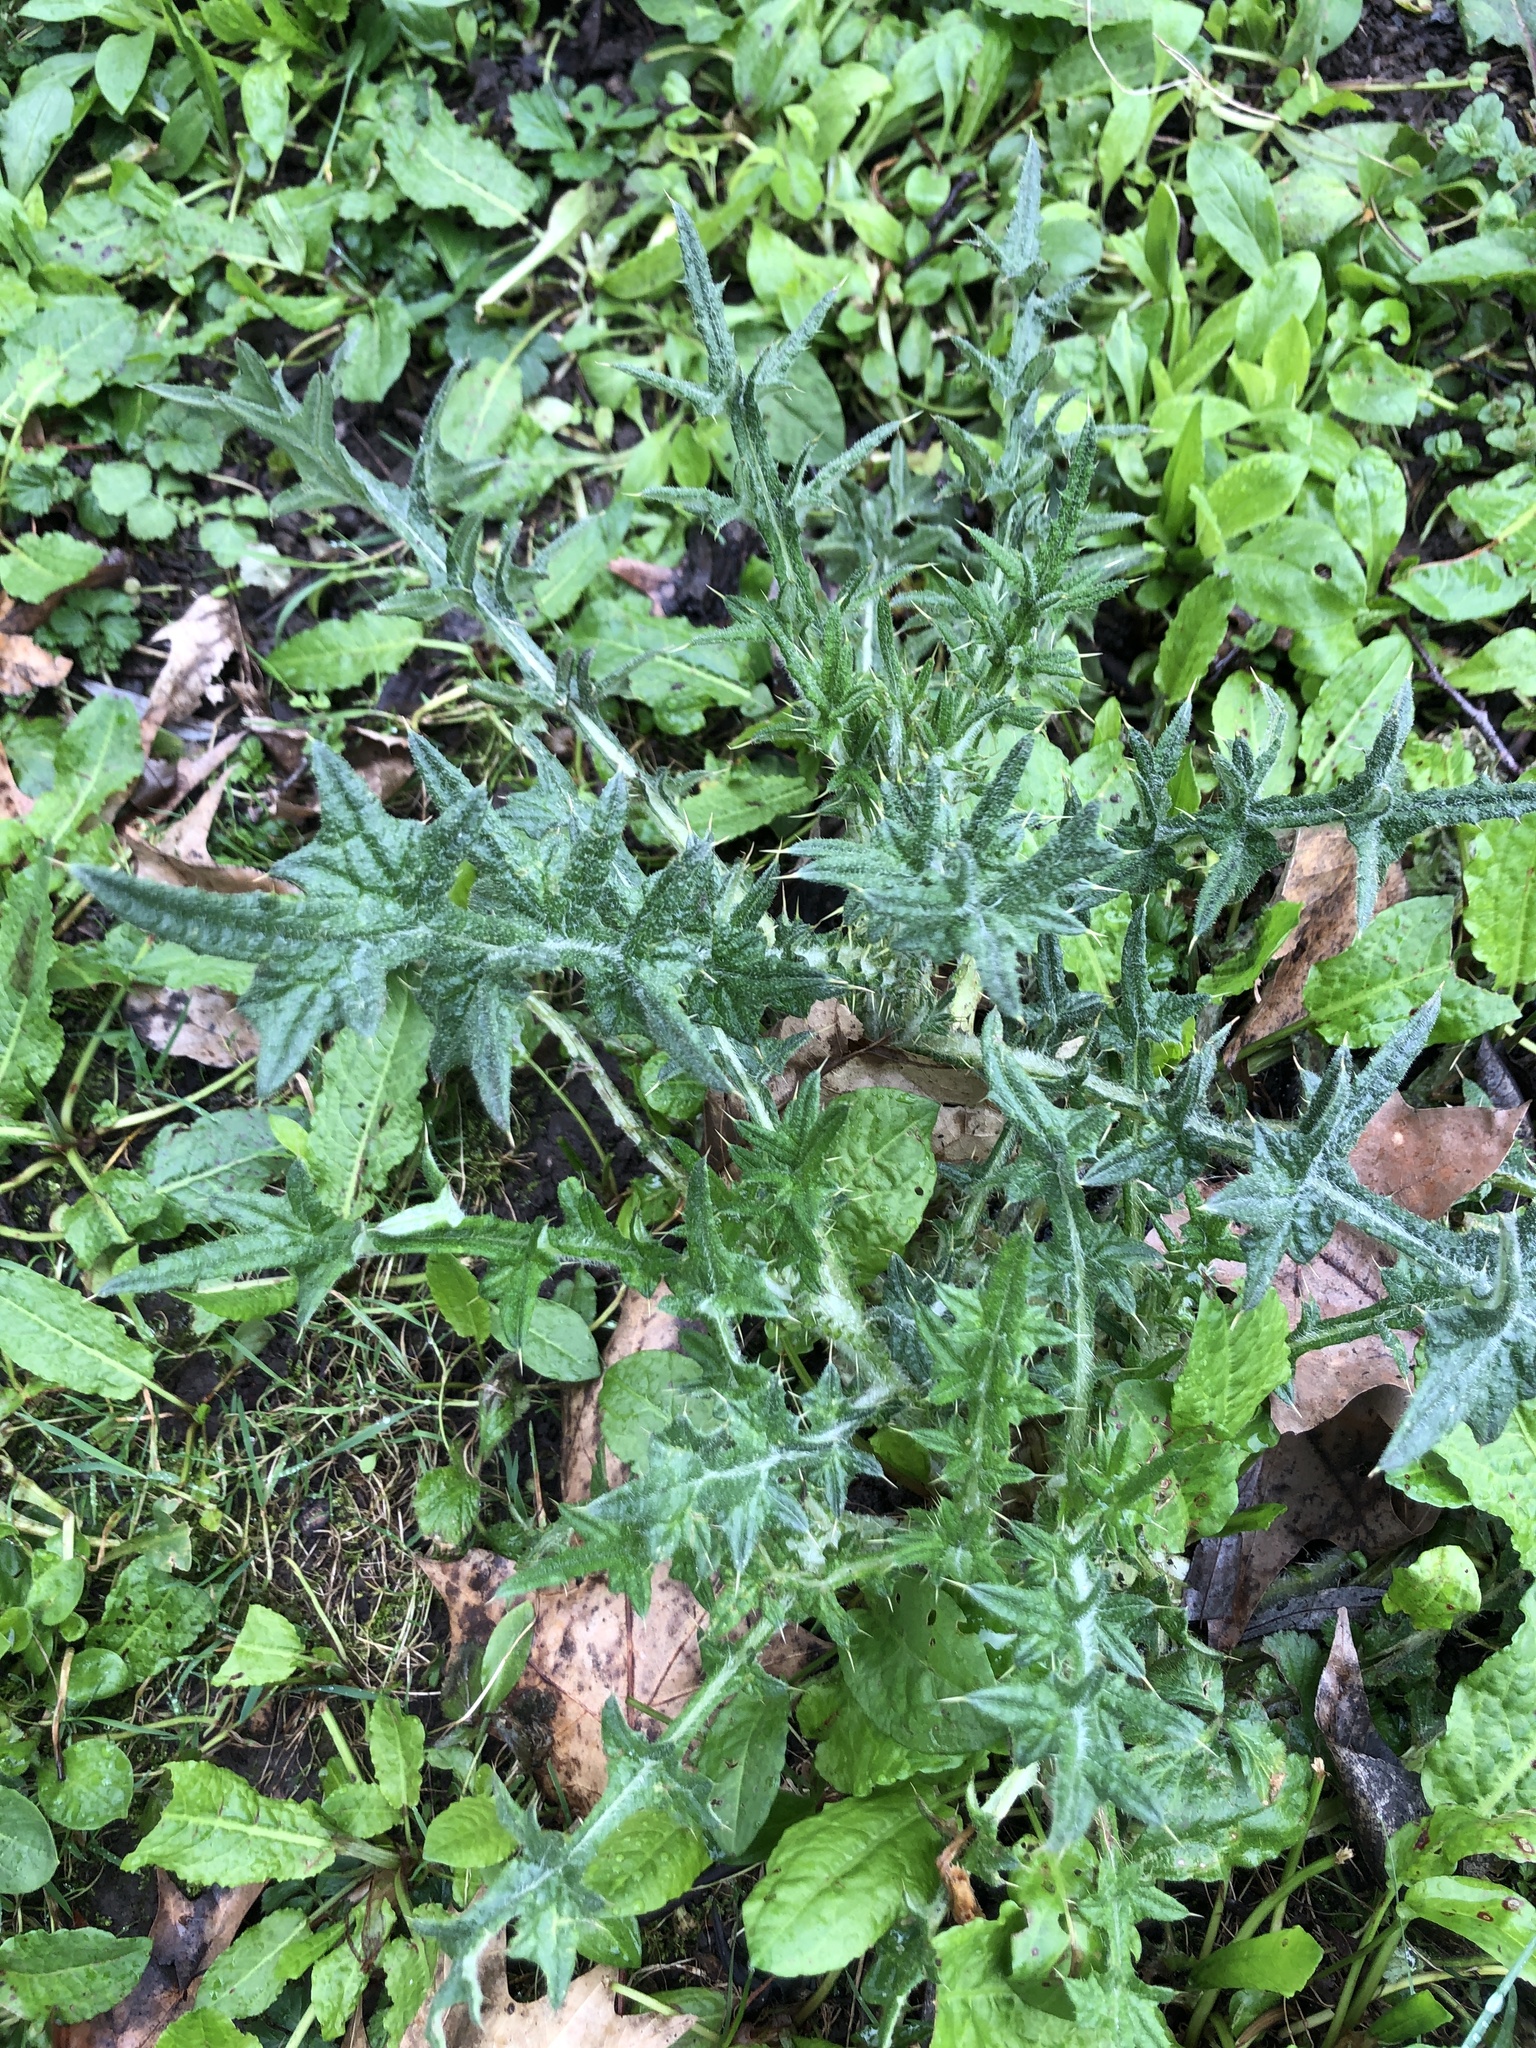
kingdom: Plantae
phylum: Tracheophyta
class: Magnoliopsida
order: Asterales
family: Asteraceae
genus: Cirsium
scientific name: Cirsium vulgare
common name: Bull thistle
